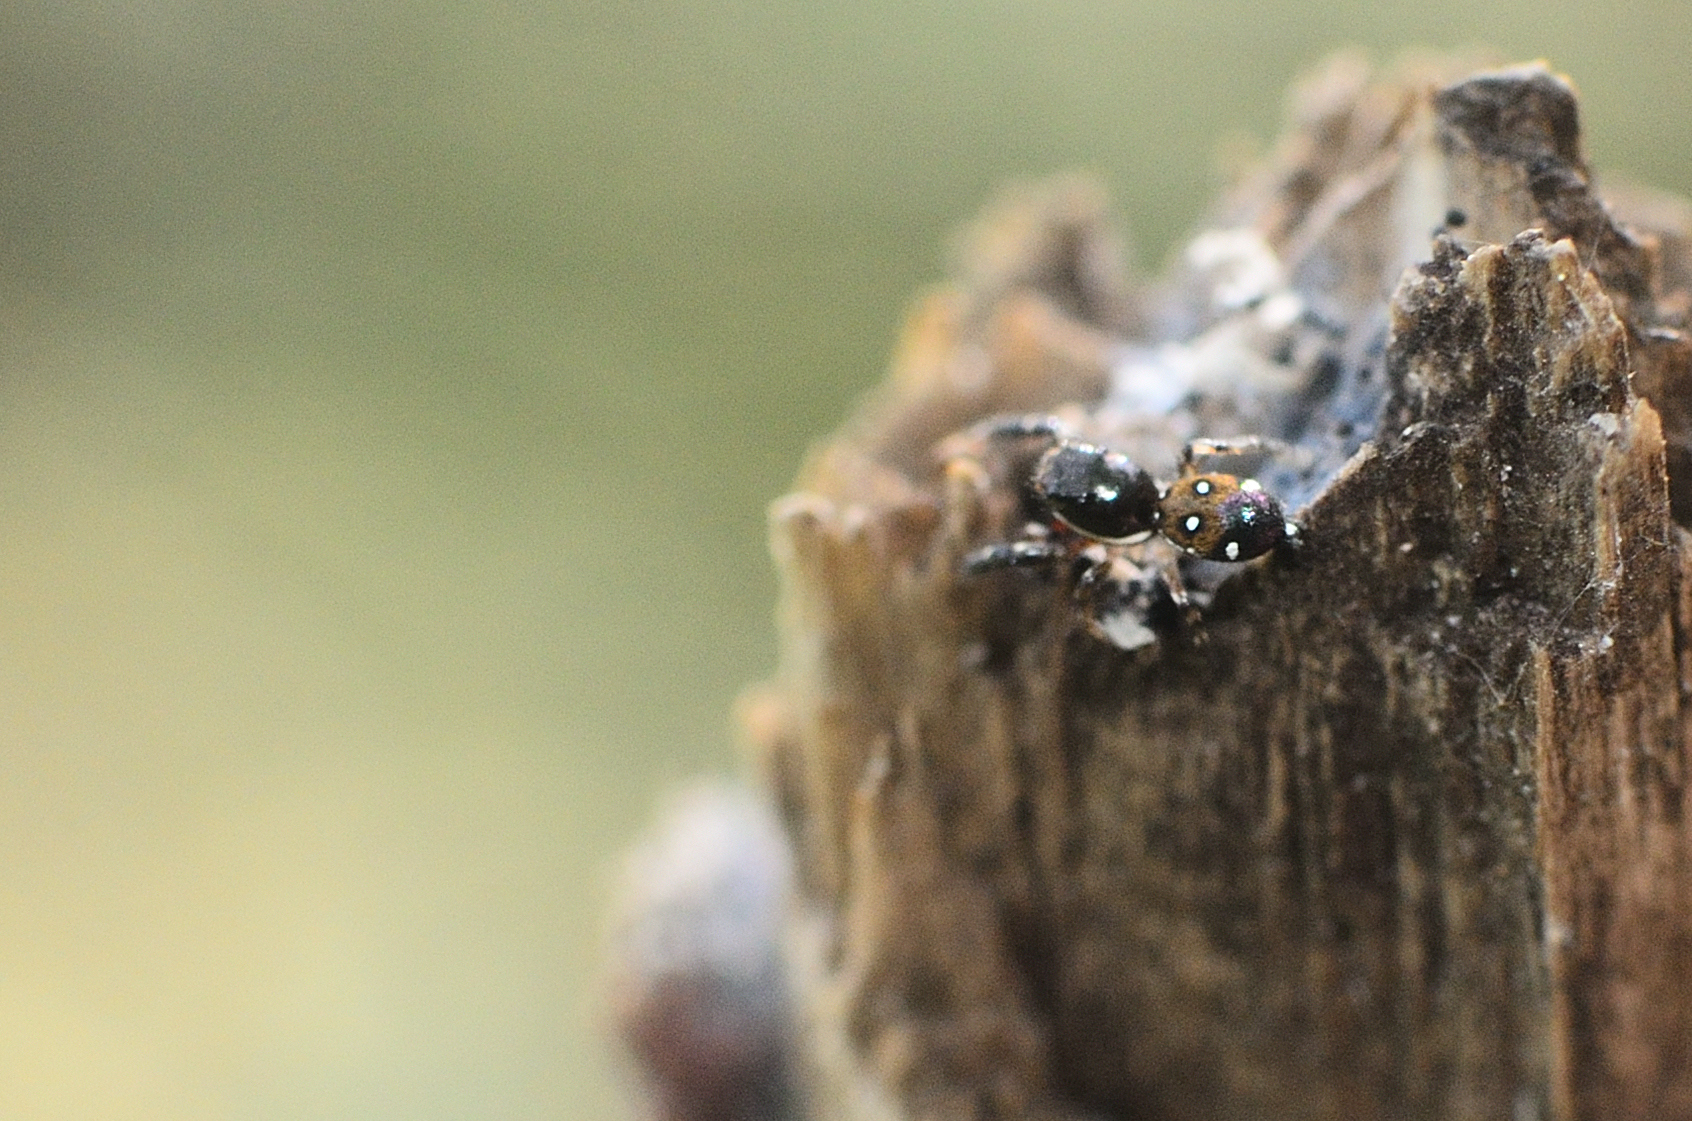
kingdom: Animalia
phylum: Arthropoda
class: Arachnida
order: Araneae
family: Salticidae
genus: Icius
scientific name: Icius alboterminus
